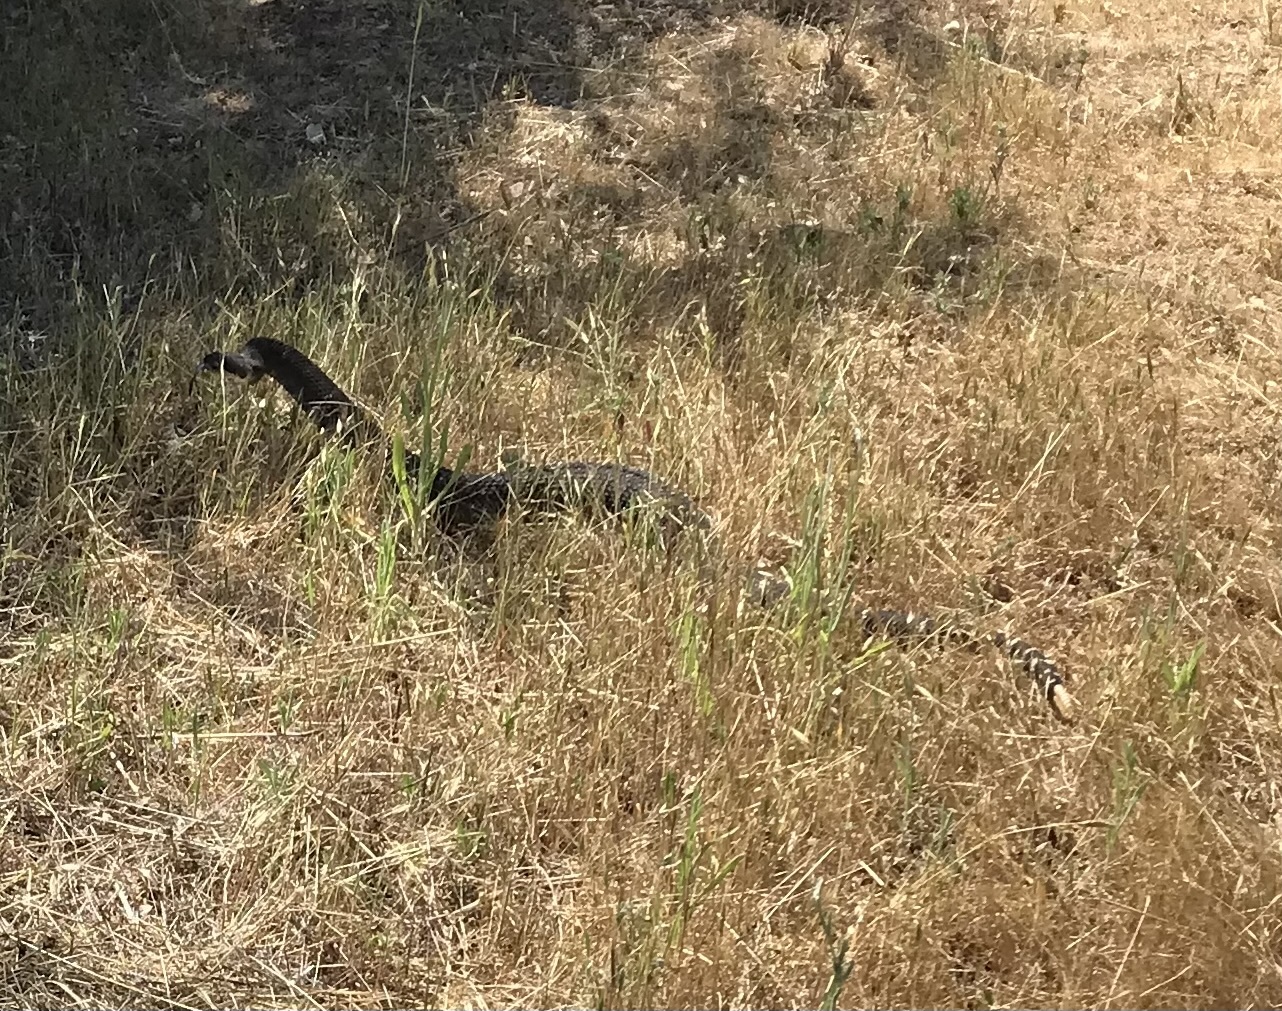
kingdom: Animalia
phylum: Chordata
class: Squamata
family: Viperidae
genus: Crotalus
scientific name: Crotalus oreganus
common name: Abyssus
